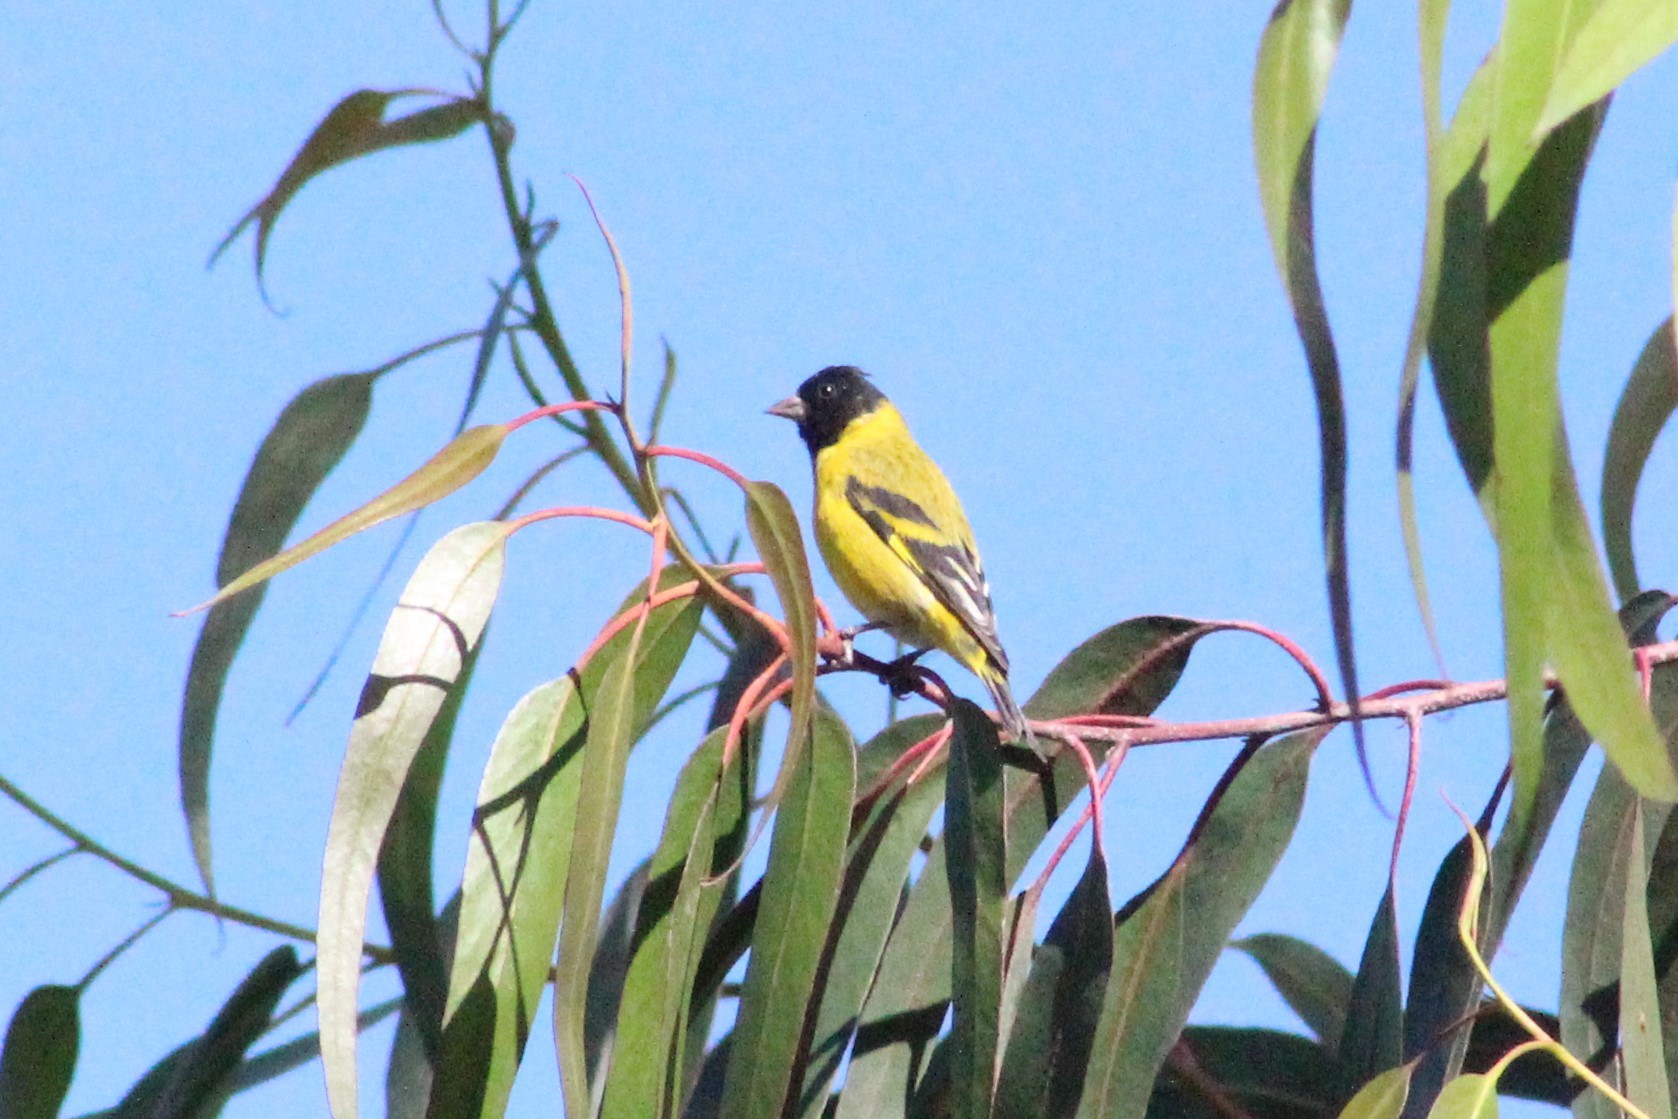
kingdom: Animalia
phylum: Chordata
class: Aves
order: Passeriformes
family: Fringillidae
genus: Spinus
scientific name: Spinus magellanicus
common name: Hooded siskin
